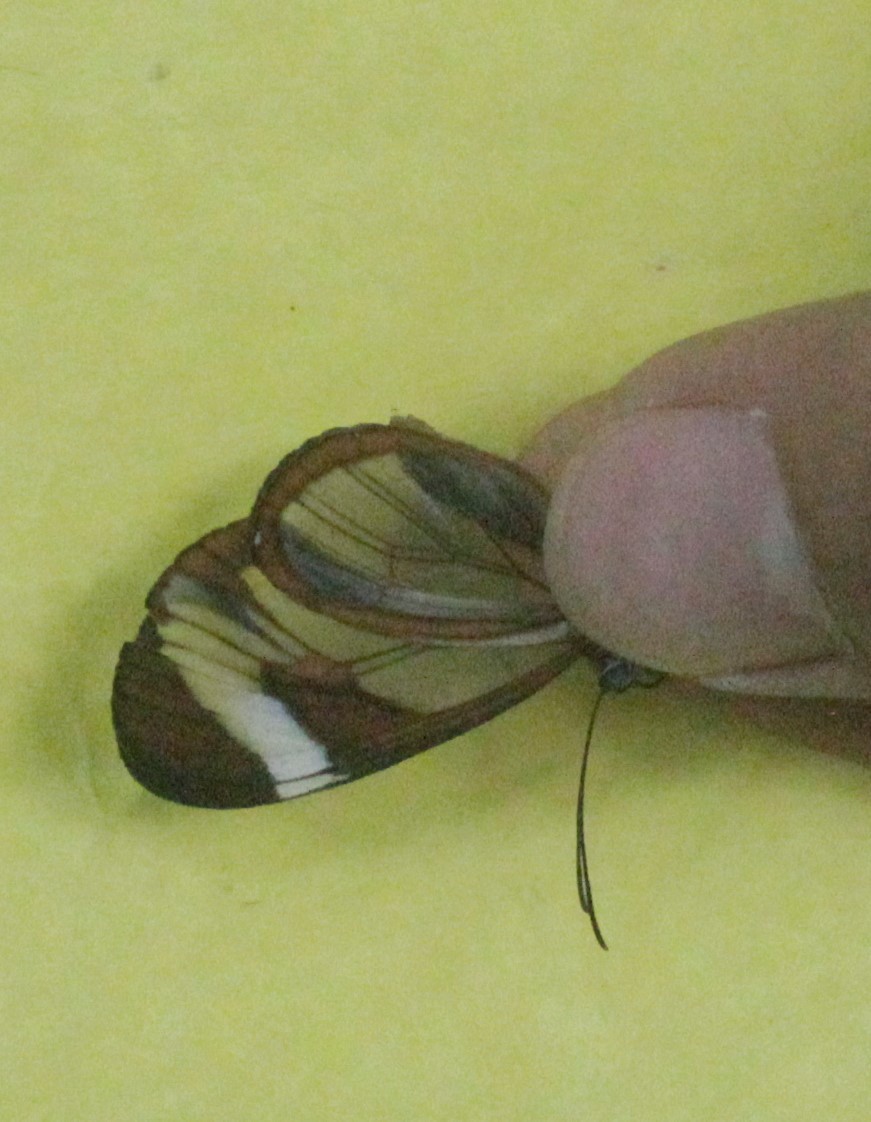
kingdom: Animalia
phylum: Arthropoda
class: Insecta
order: Lepidoptera
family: Nymphalidae
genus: Ithomia
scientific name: Ithomia patilla
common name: Patilla clearwing
